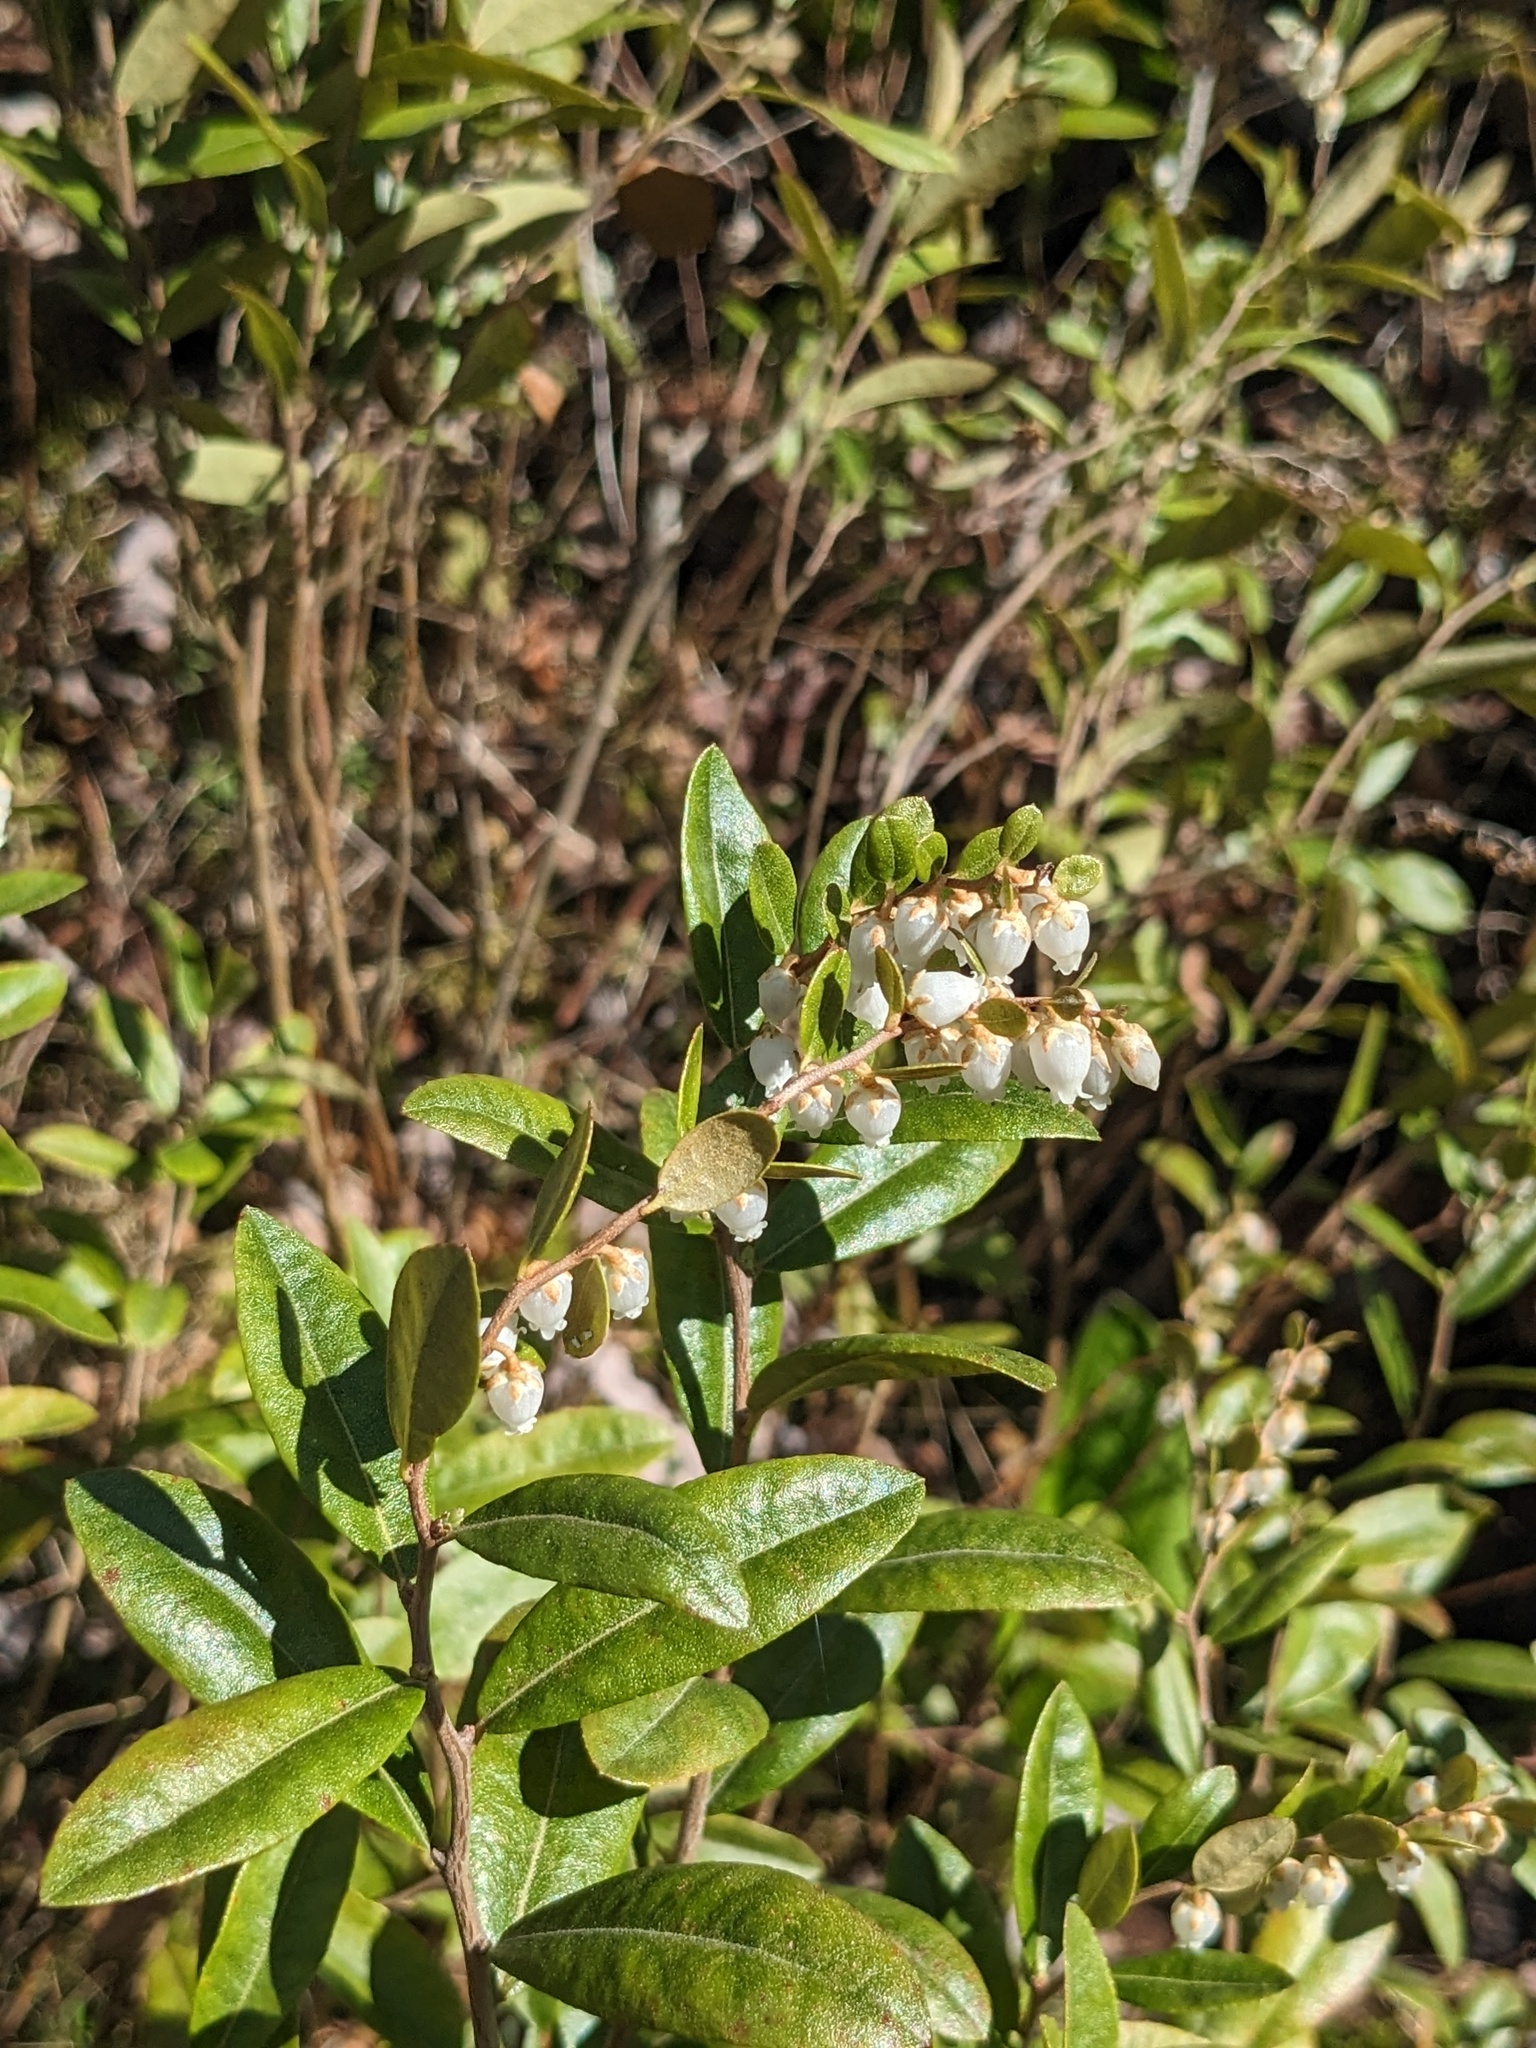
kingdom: Plantae
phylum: Tracheophyta
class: Magnoliopsida
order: Ericales
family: Ericaceae
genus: Chamaedaphne
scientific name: Chamaedaphne calyculata
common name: Leatherleaf
